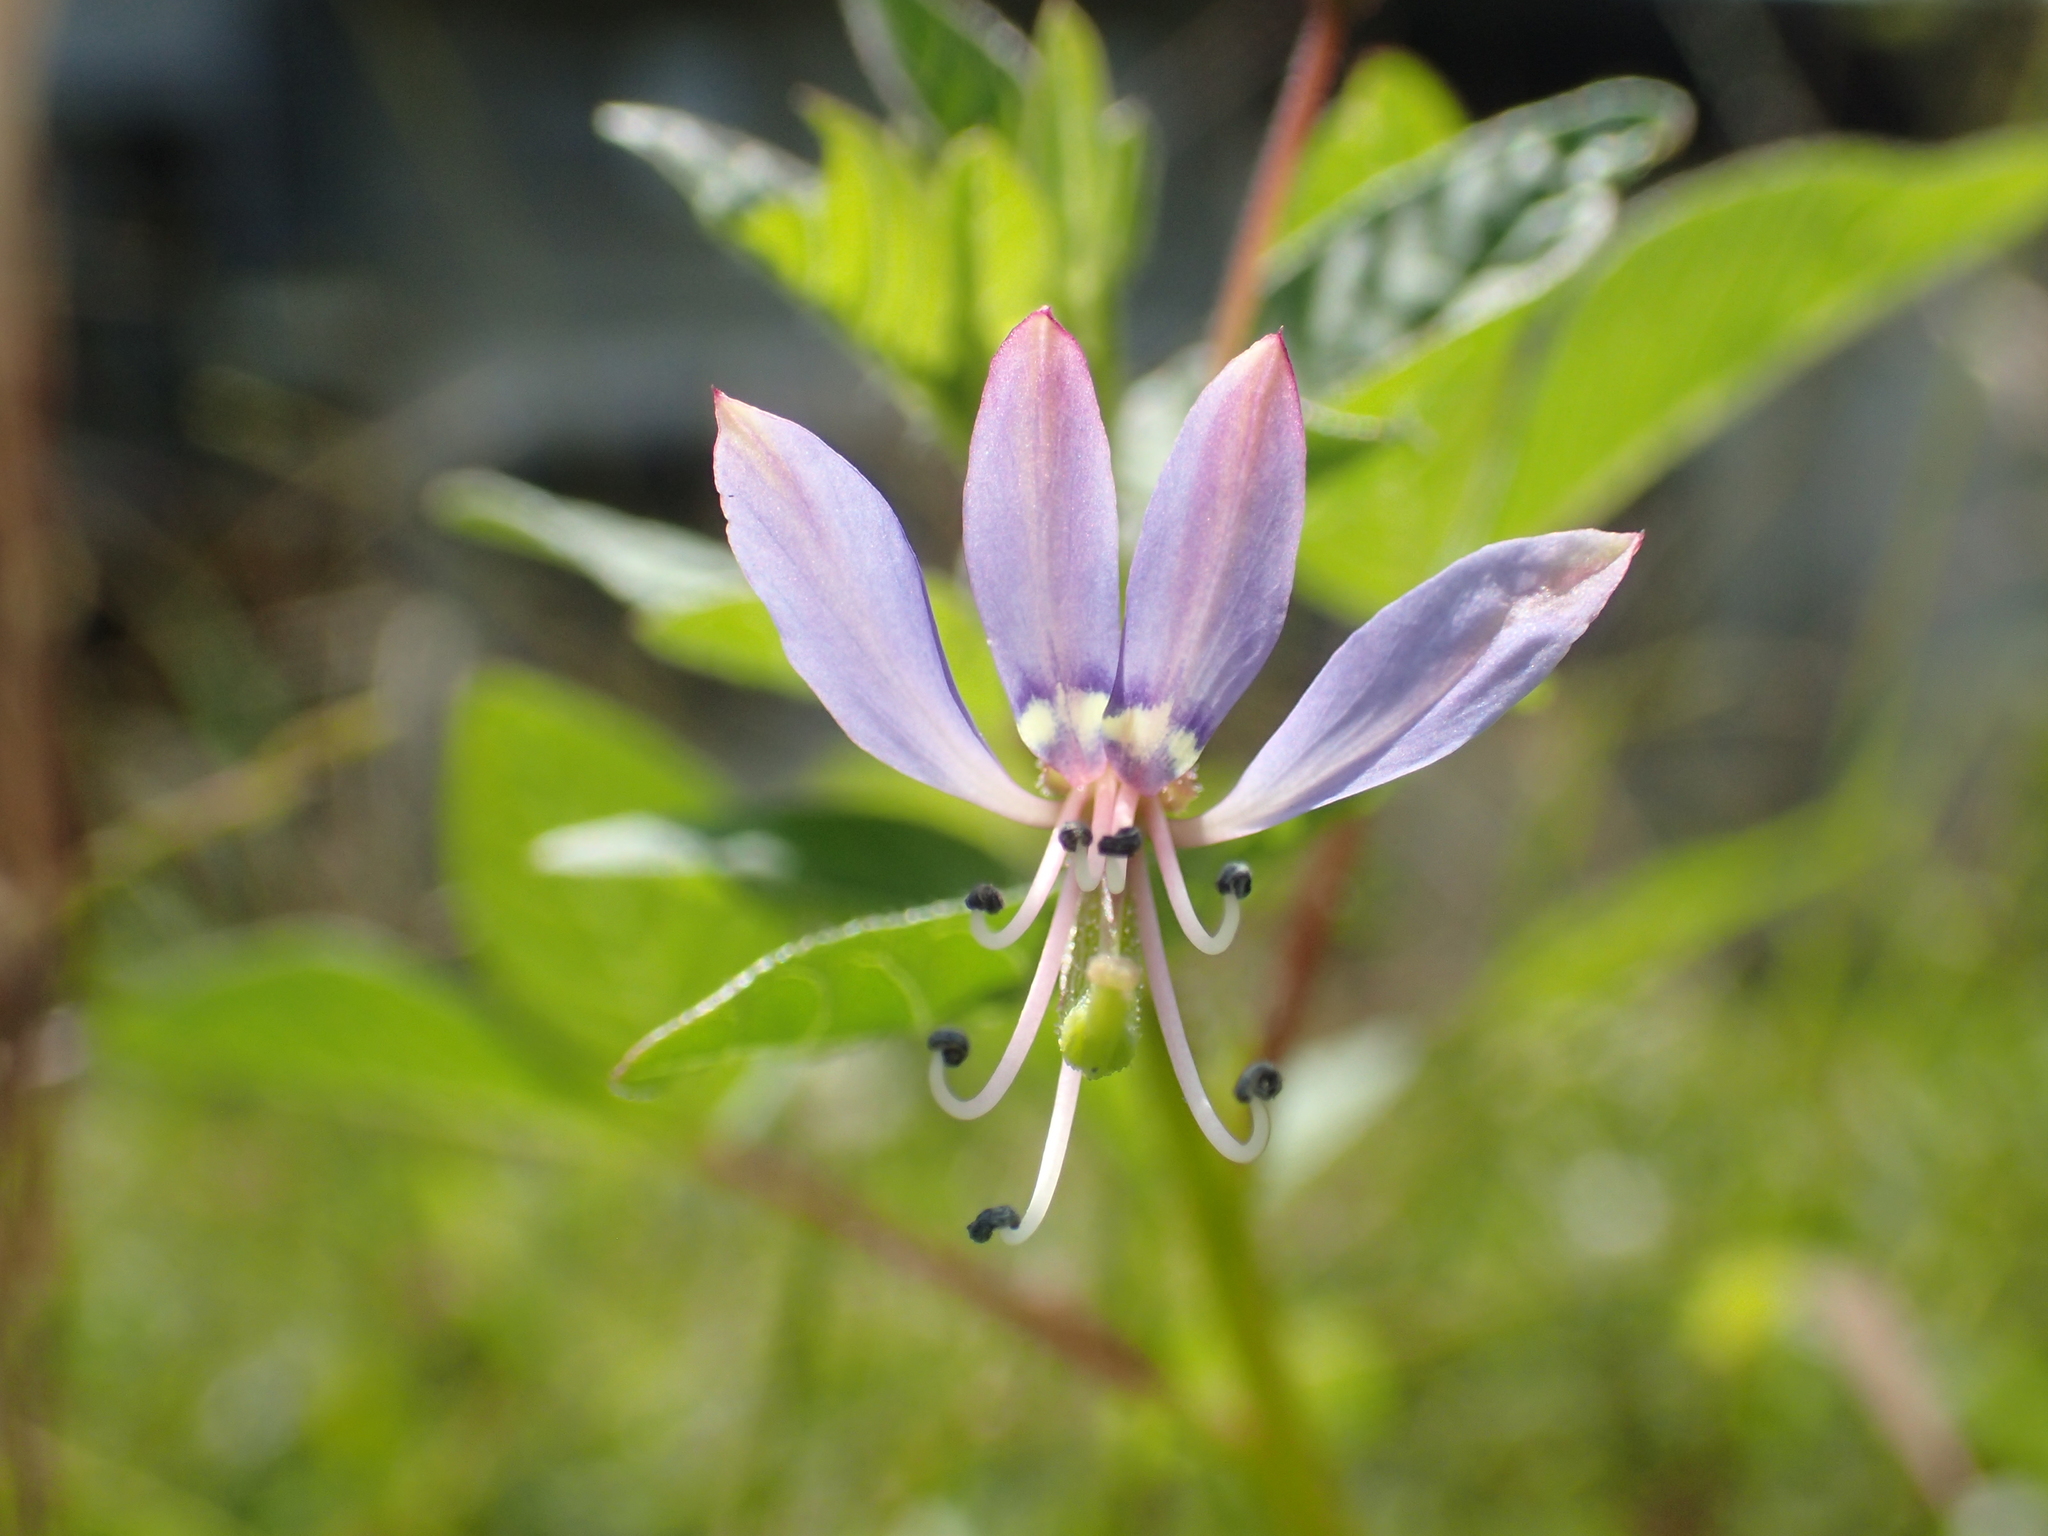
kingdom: Plantae
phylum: Tracheophyta
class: Magnoliopsida
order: Brassicales
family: Cleomaceae
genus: Sieruela
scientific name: Sieruela rutidosperma
